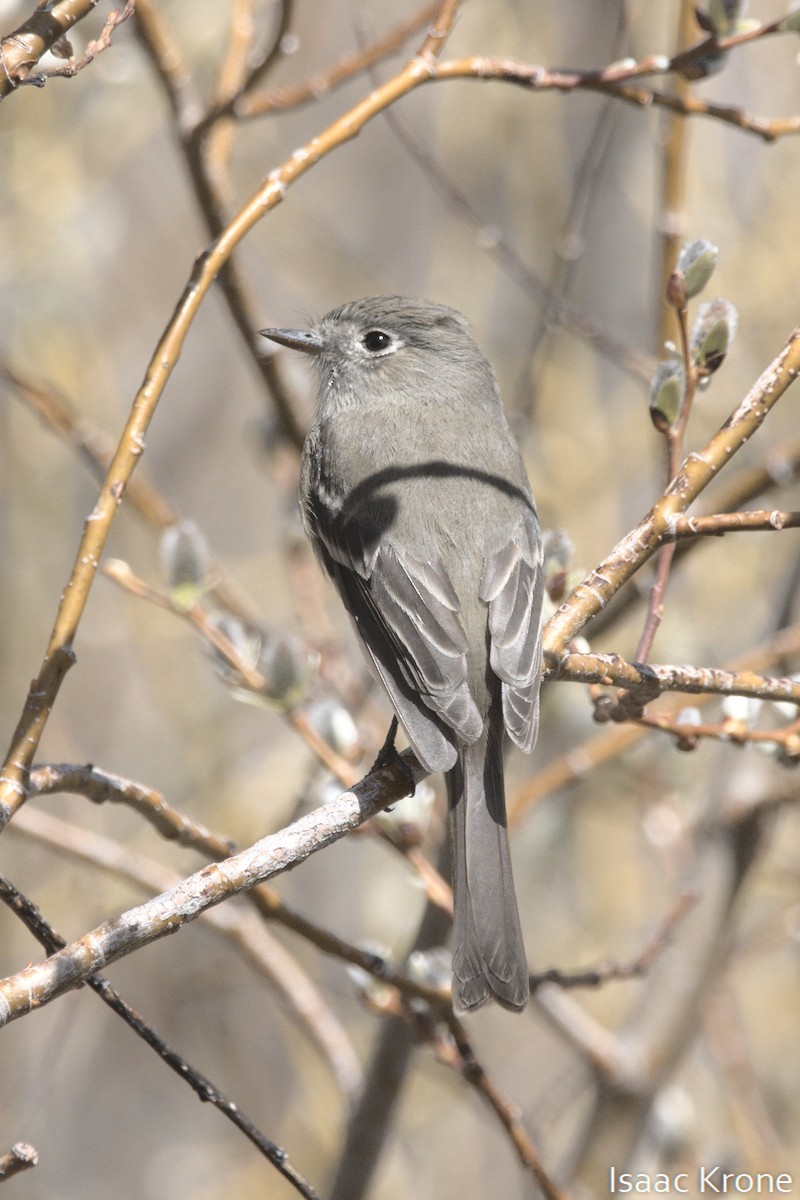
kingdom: Animalia
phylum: Chordata
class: Aves
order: Passeriformes
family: Tyrannidae
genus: Empidonax
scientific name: Empidonax oberholseri
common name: Dusky flycatcher
